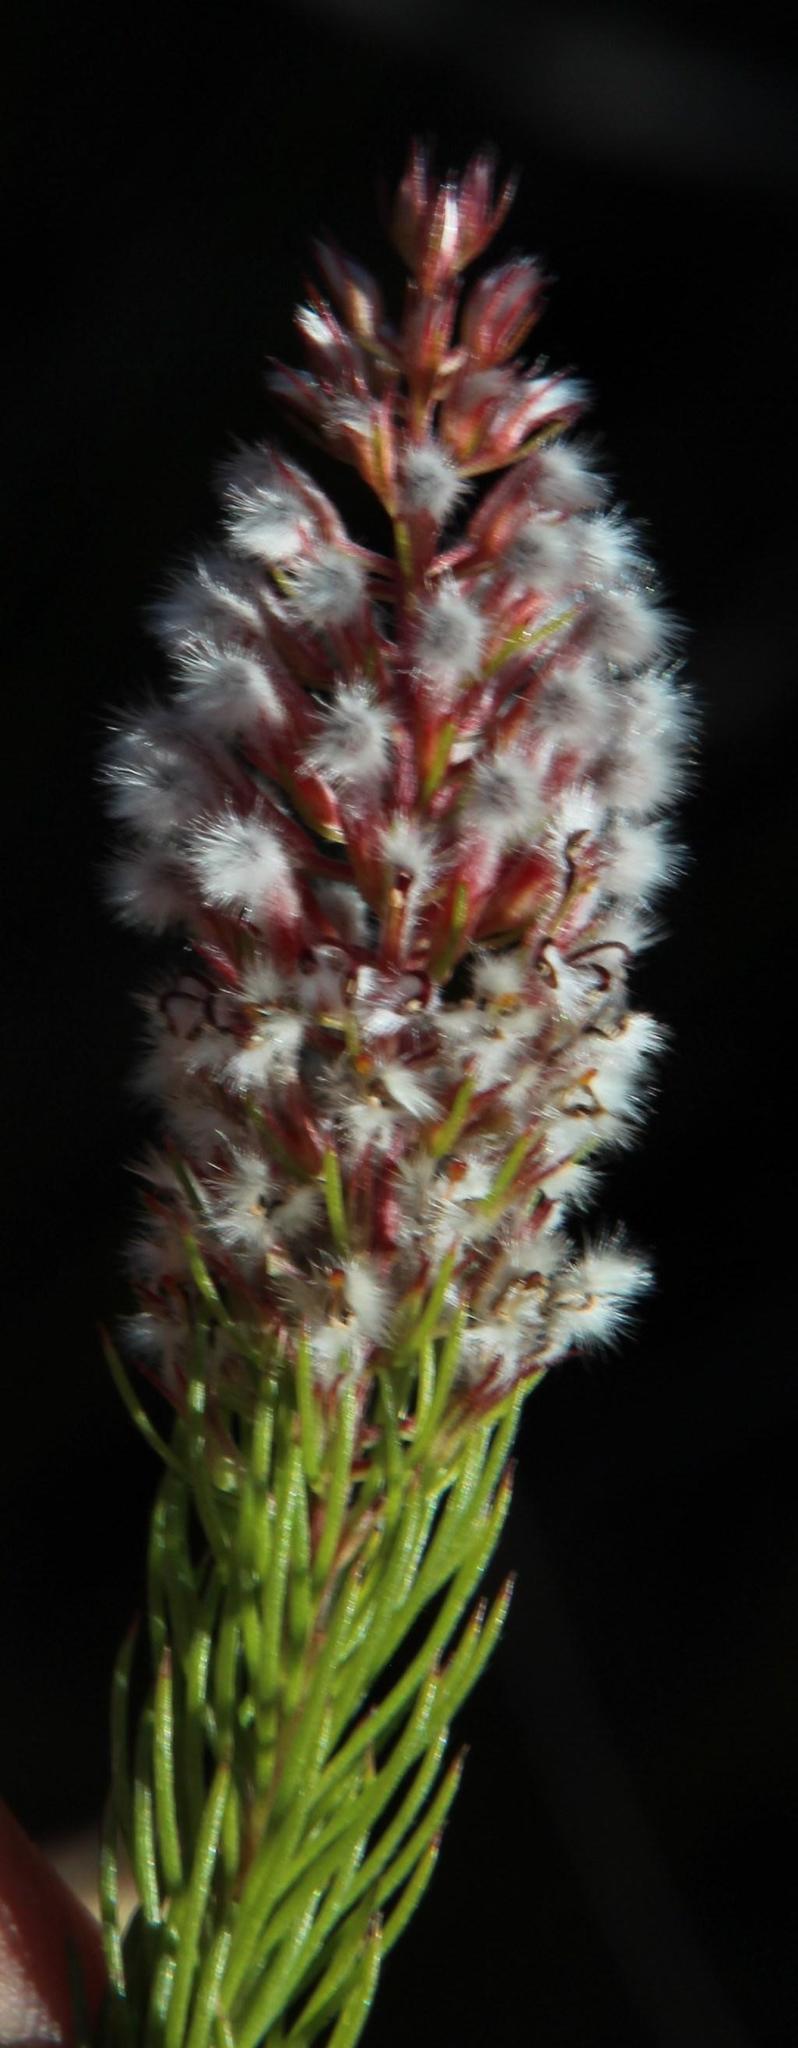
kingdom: Plantae
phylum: Tracheophyta
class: Magnoliopsida
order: Proteales
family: Proteaceae
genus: Spatalla
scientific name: Spatalla parilis
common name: Spike spoon
